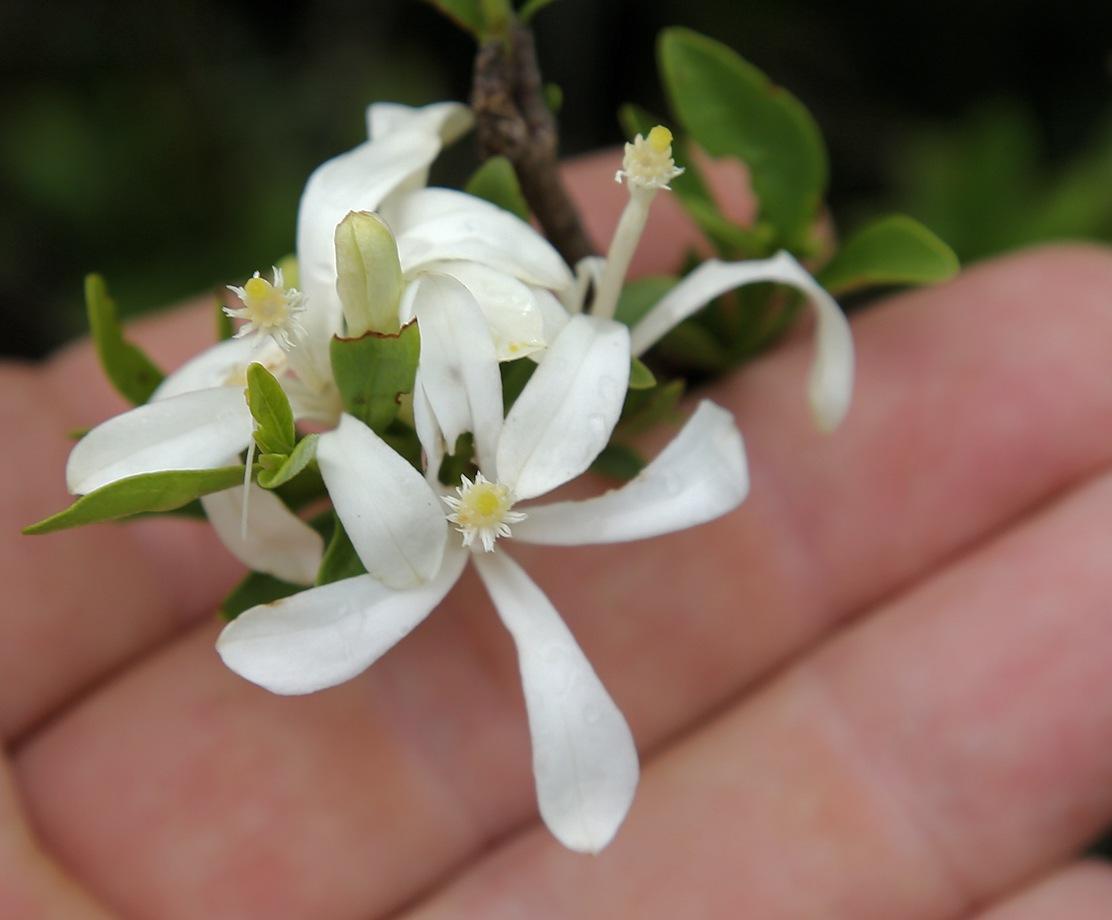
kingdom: Plantae
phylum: Tracheophyta
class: Magnoliopsida
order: Sapindales
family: Meliaceae
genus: Turraea
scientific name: Turraea obtusifolia
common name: Small honeysuckle tree
